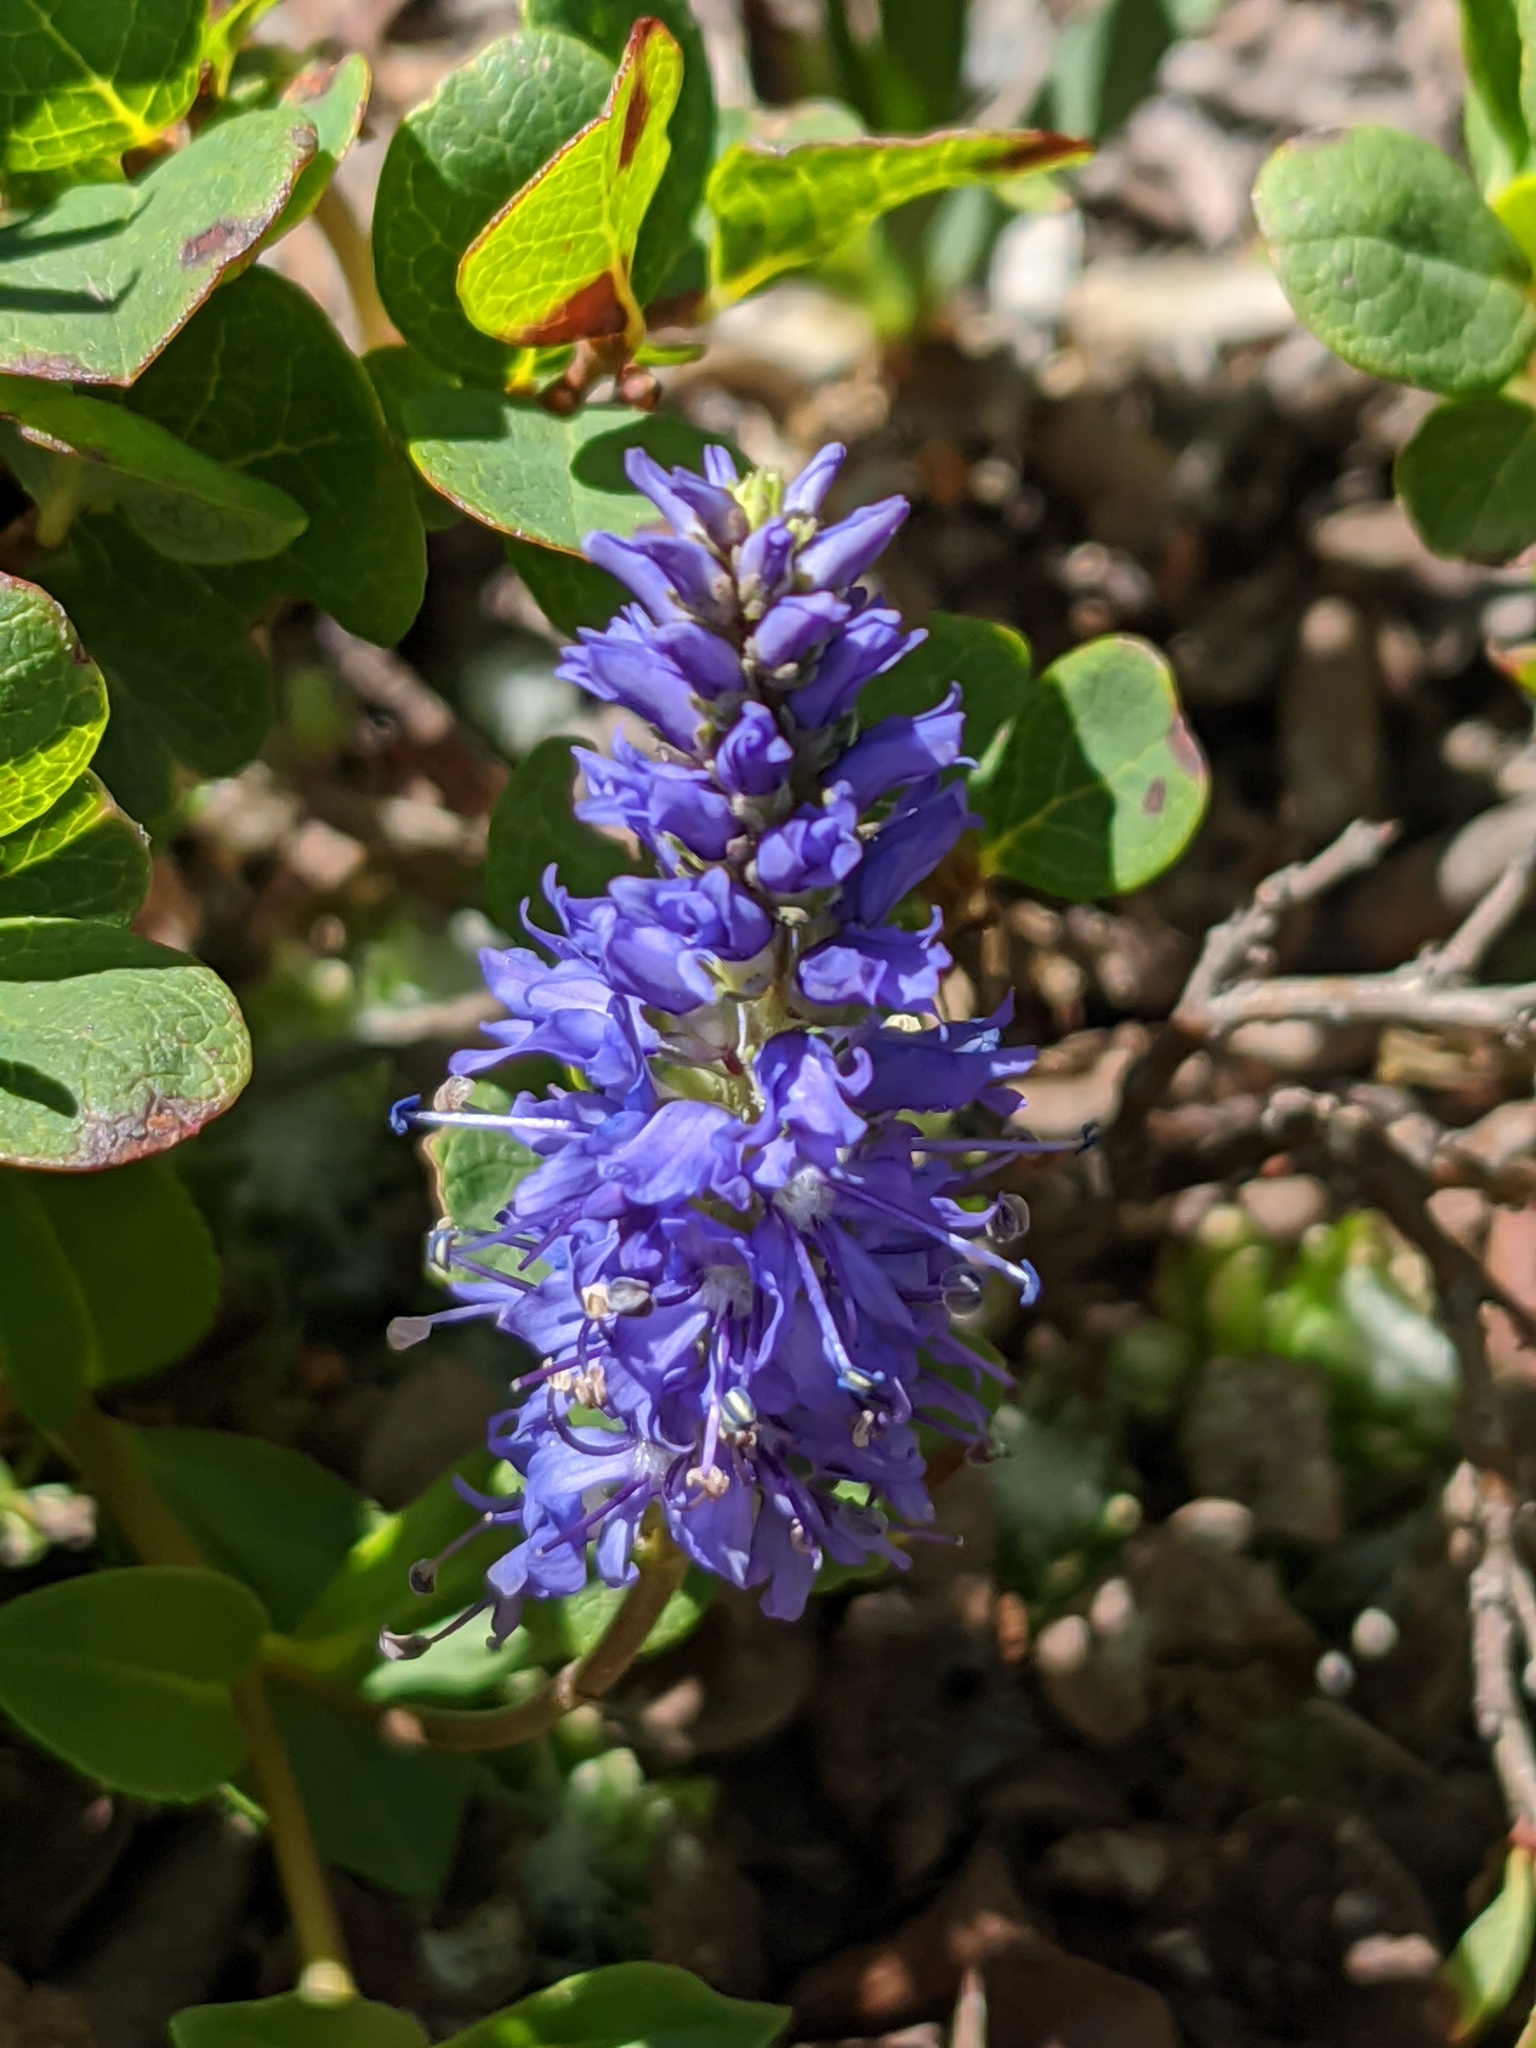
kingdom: Plantae
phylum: Tracheophyta
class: Magnoliopsida
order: Lamiales
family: Plantaginaceae
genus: Veronica
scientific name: Veronica allionii
